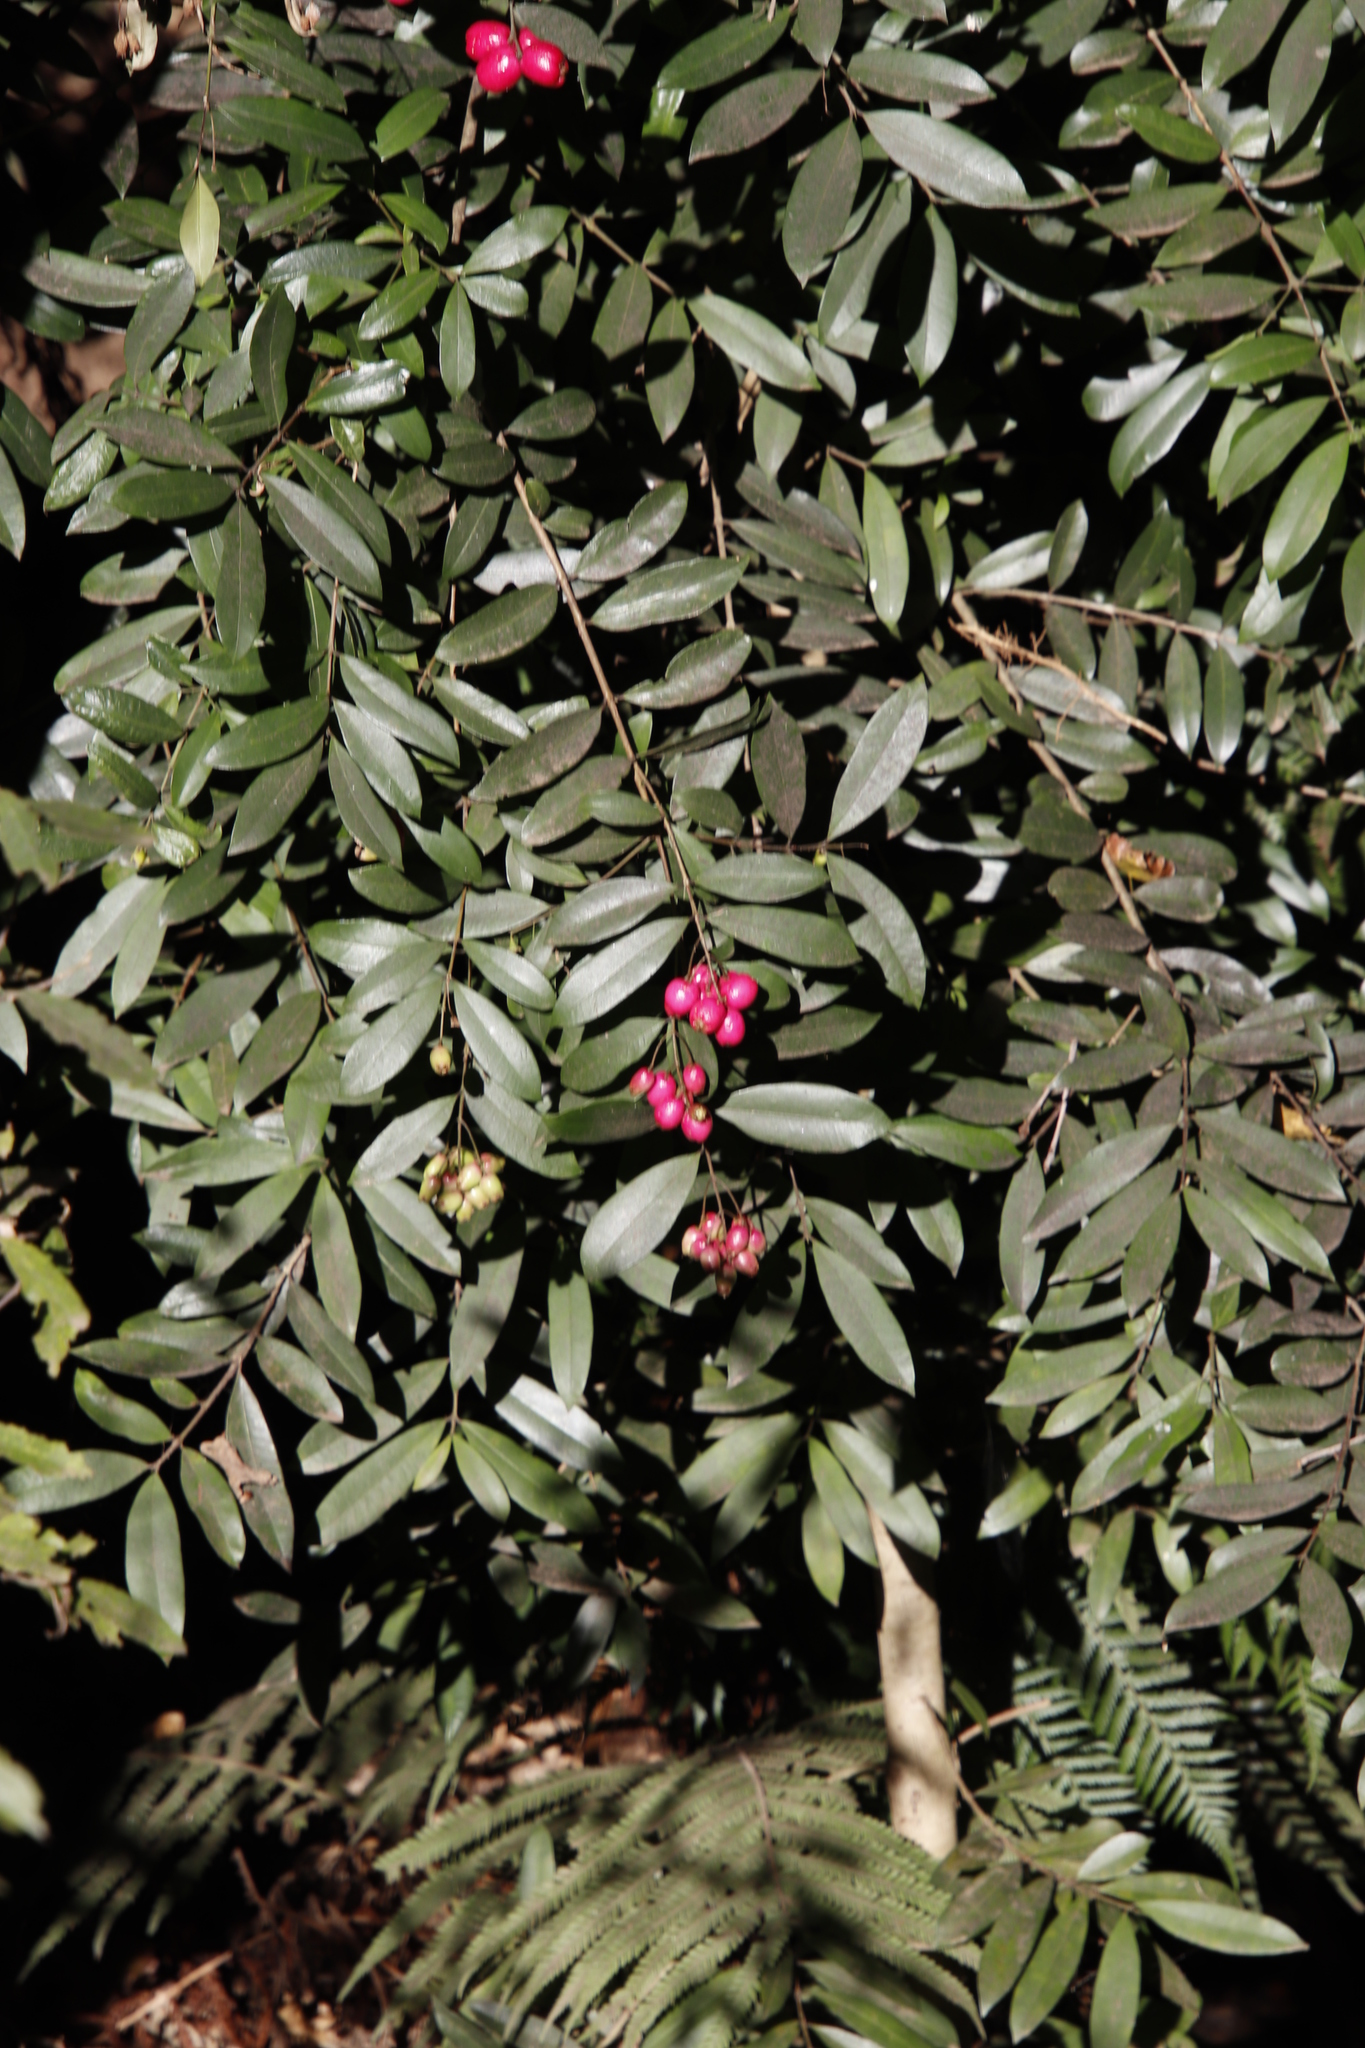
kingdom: Plantae
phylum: Tracheophyta
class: Magnoliopsida
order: Myrtales
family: Myrtaceae
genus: Syzygium
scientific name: Syzygium australe
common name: Australian brush-cherry
